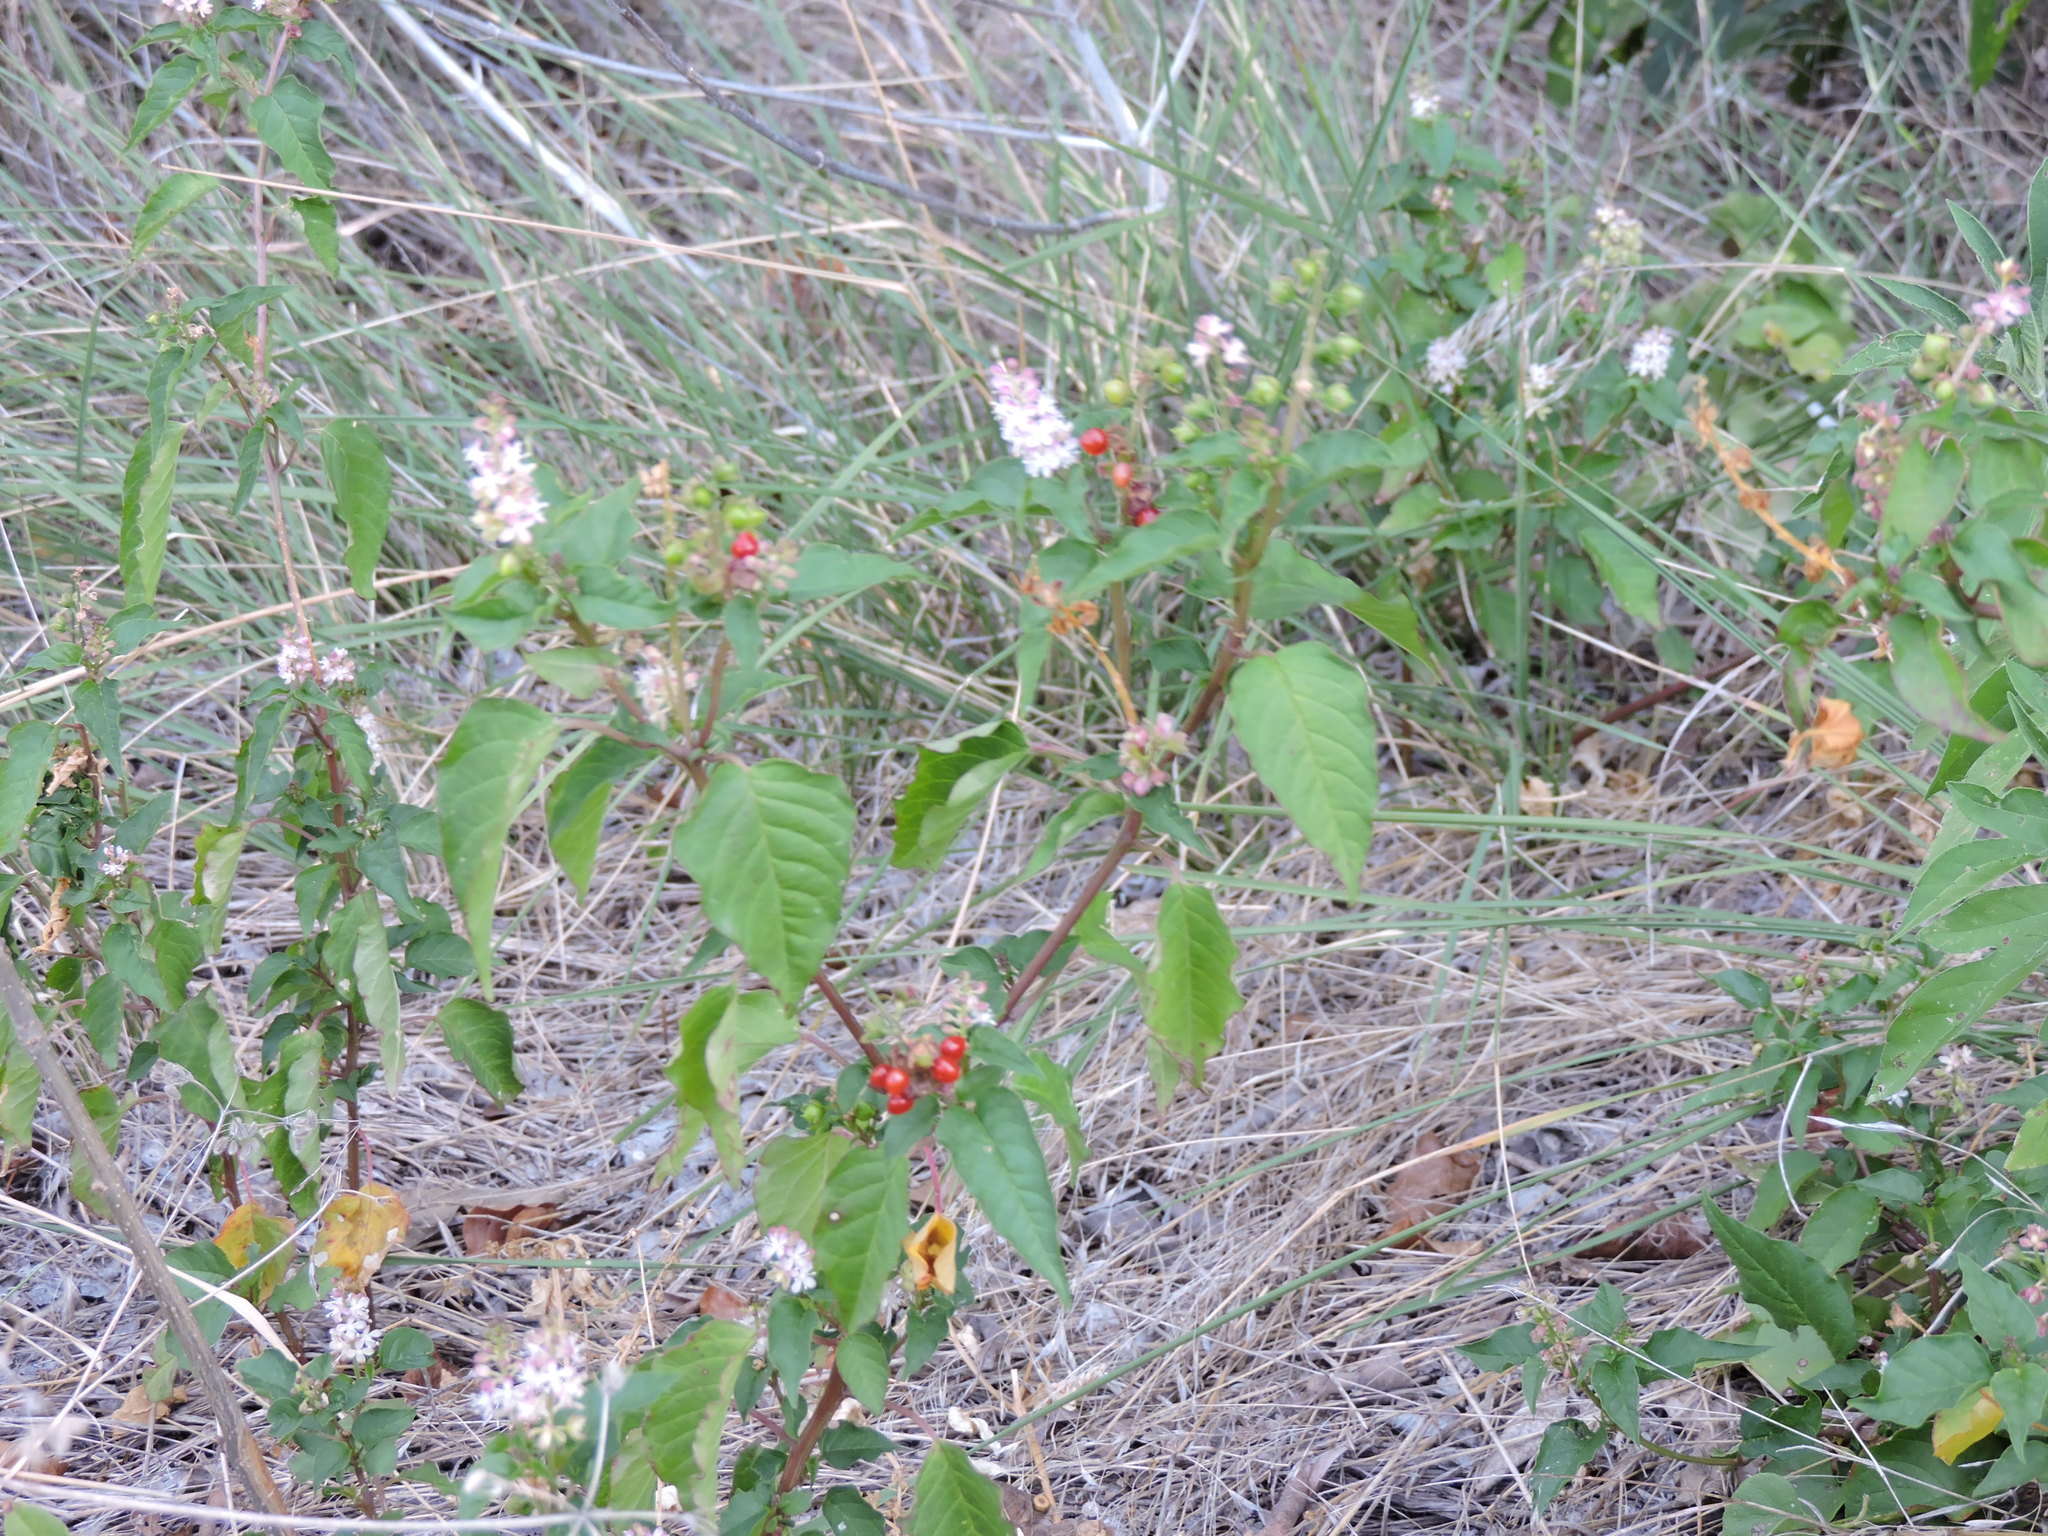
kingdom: Plantae
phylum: Tracheophyta
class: Magnoliopsida
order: Caryophyllales
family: Phytolaccaceae
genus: Rivina
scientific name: Rivina humilis
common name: Rougeplant
